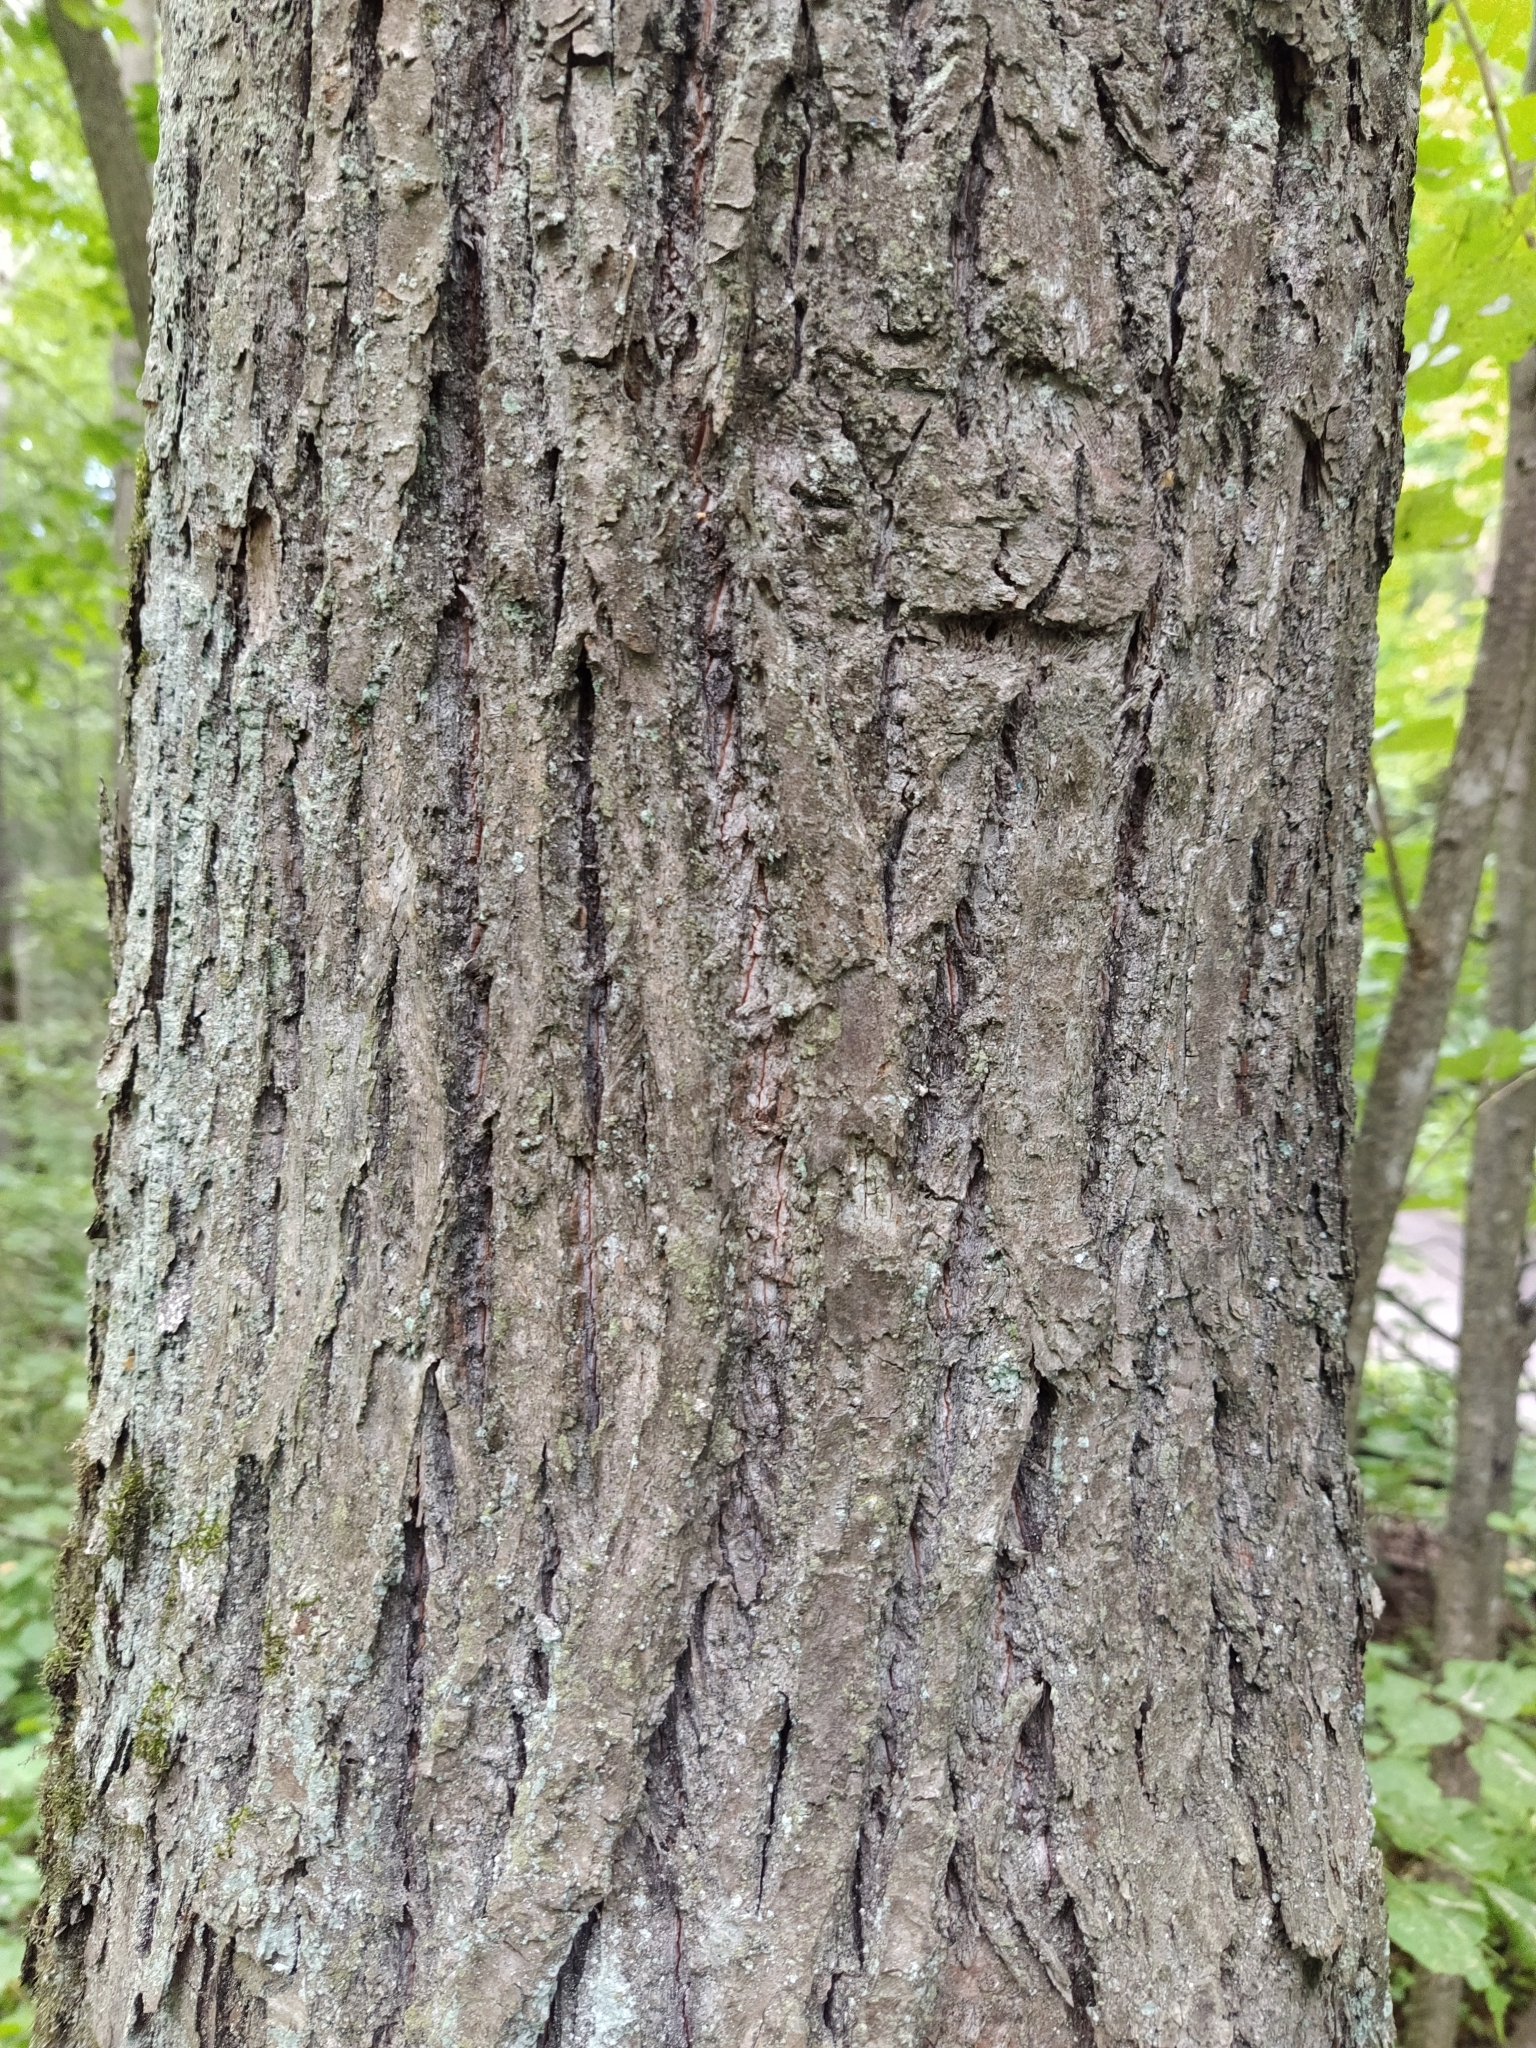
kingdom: Plantae
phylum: Tracheophyta
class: Magnoliopsida
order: Malvales
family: Malvaceae
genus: Tilia
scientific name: Tilia cordata
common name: Small-leaved lime
